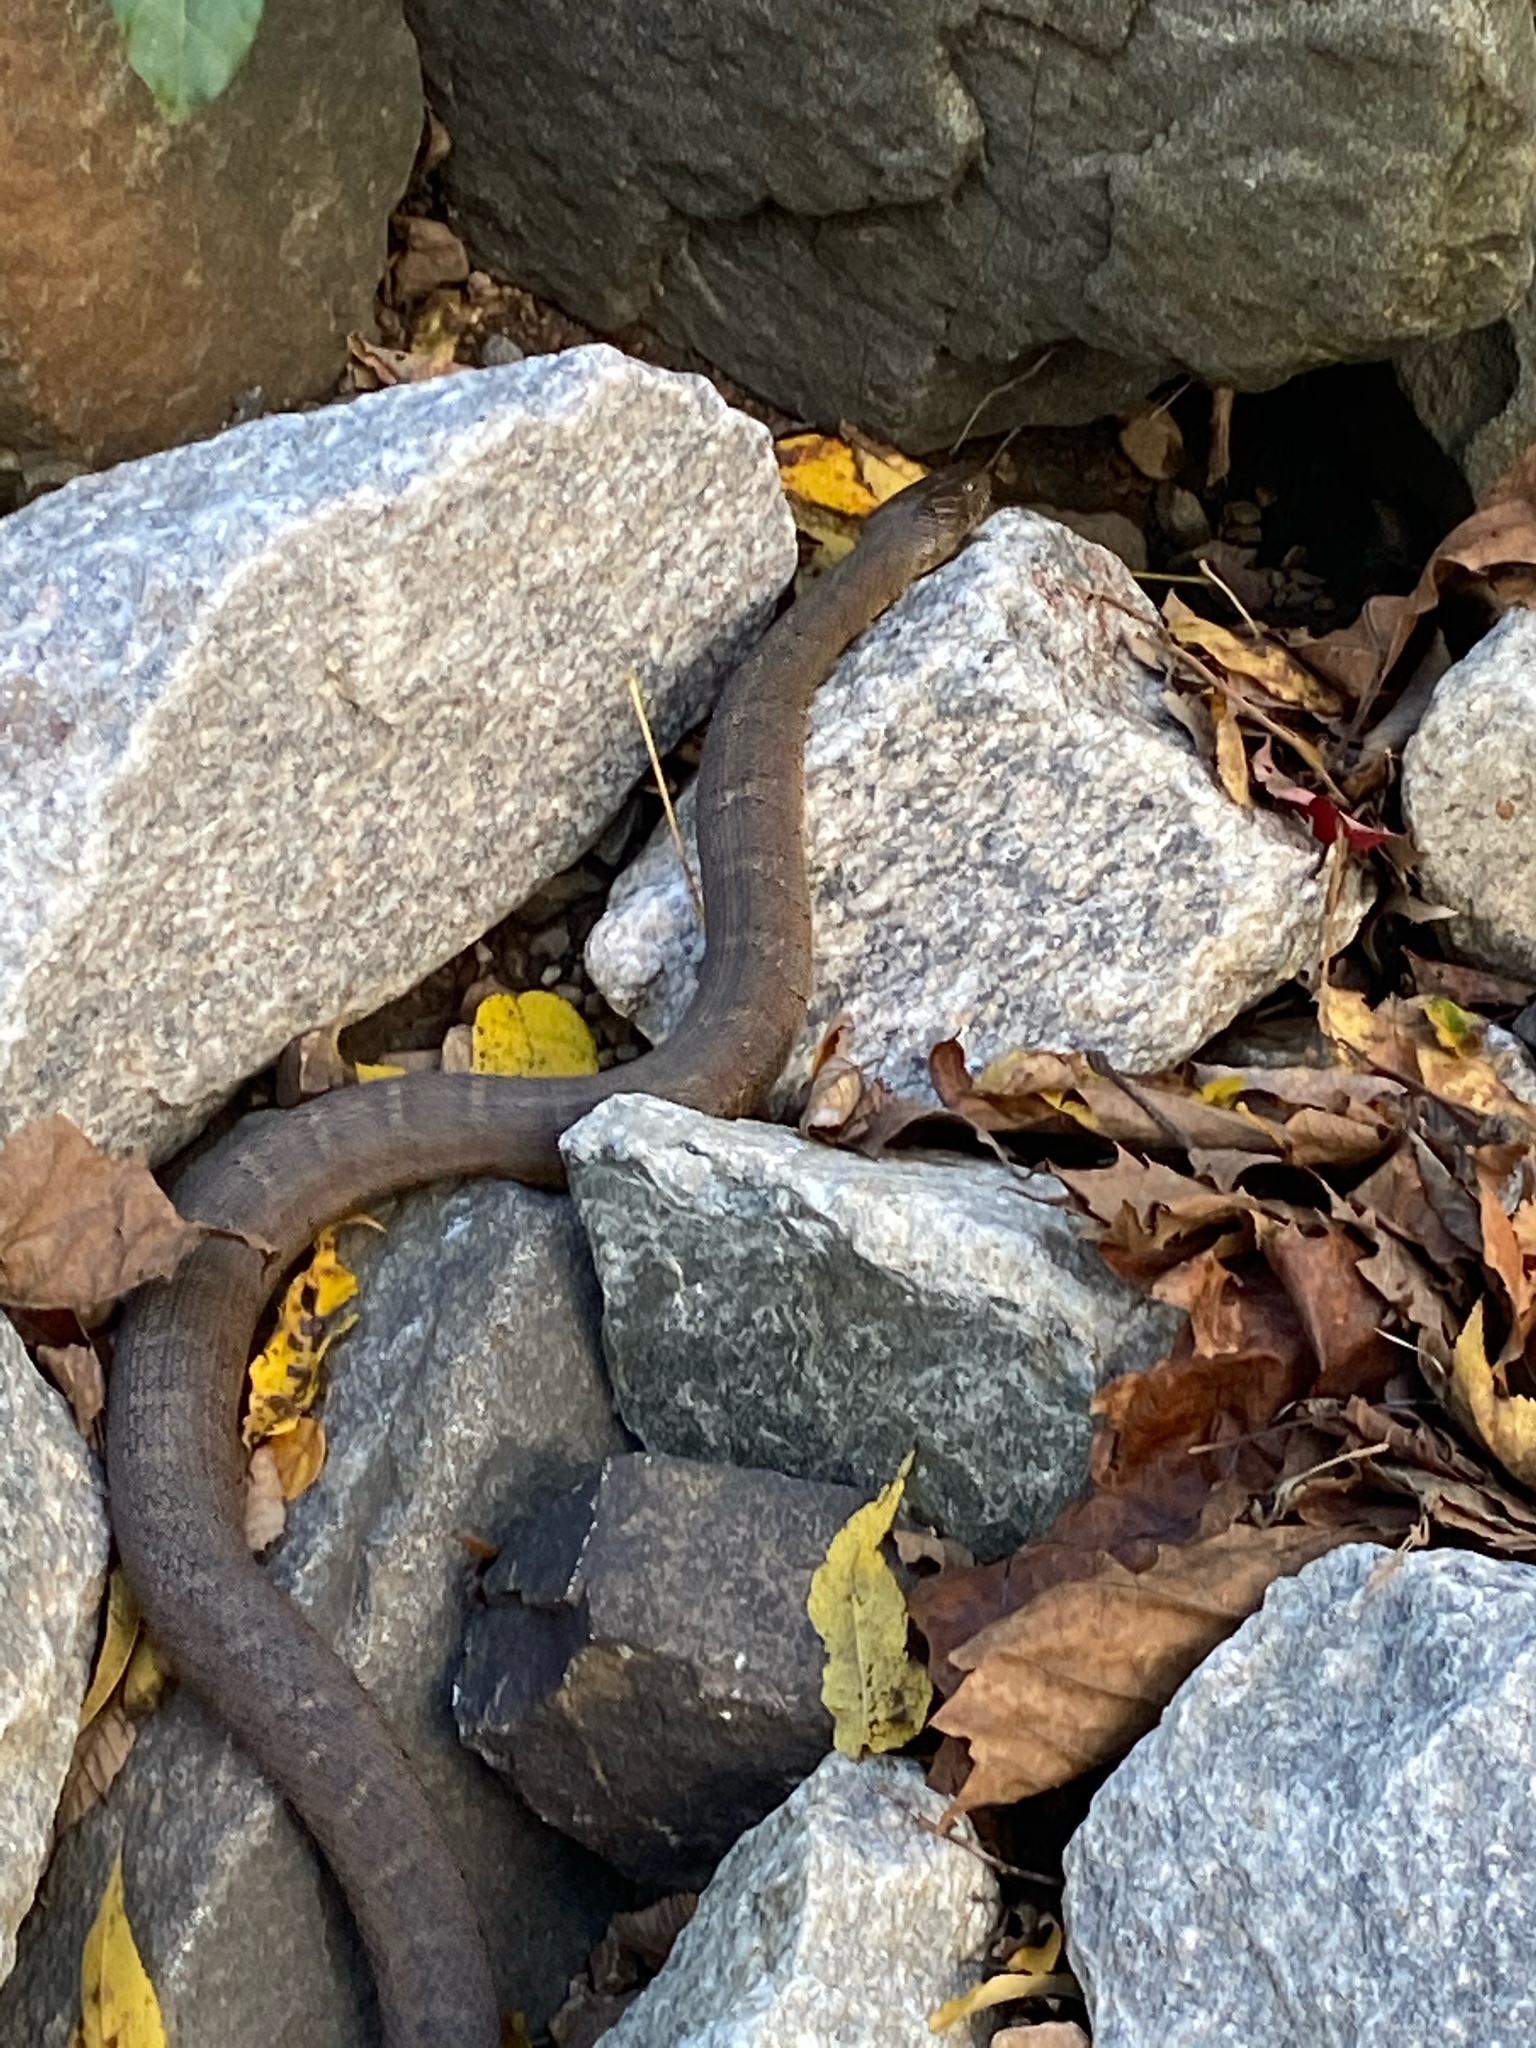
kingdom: Animalia
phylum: Chordata
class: Squamata
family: Colubridae
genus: Nerodia
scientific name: Nerodia sipedon
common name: Northern water snake
